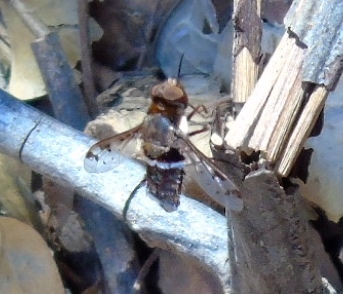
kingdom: Animalia
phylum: Arthropoda
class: Insecta
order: Diptera
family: Bombyliidae
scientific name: Bombyliidae
